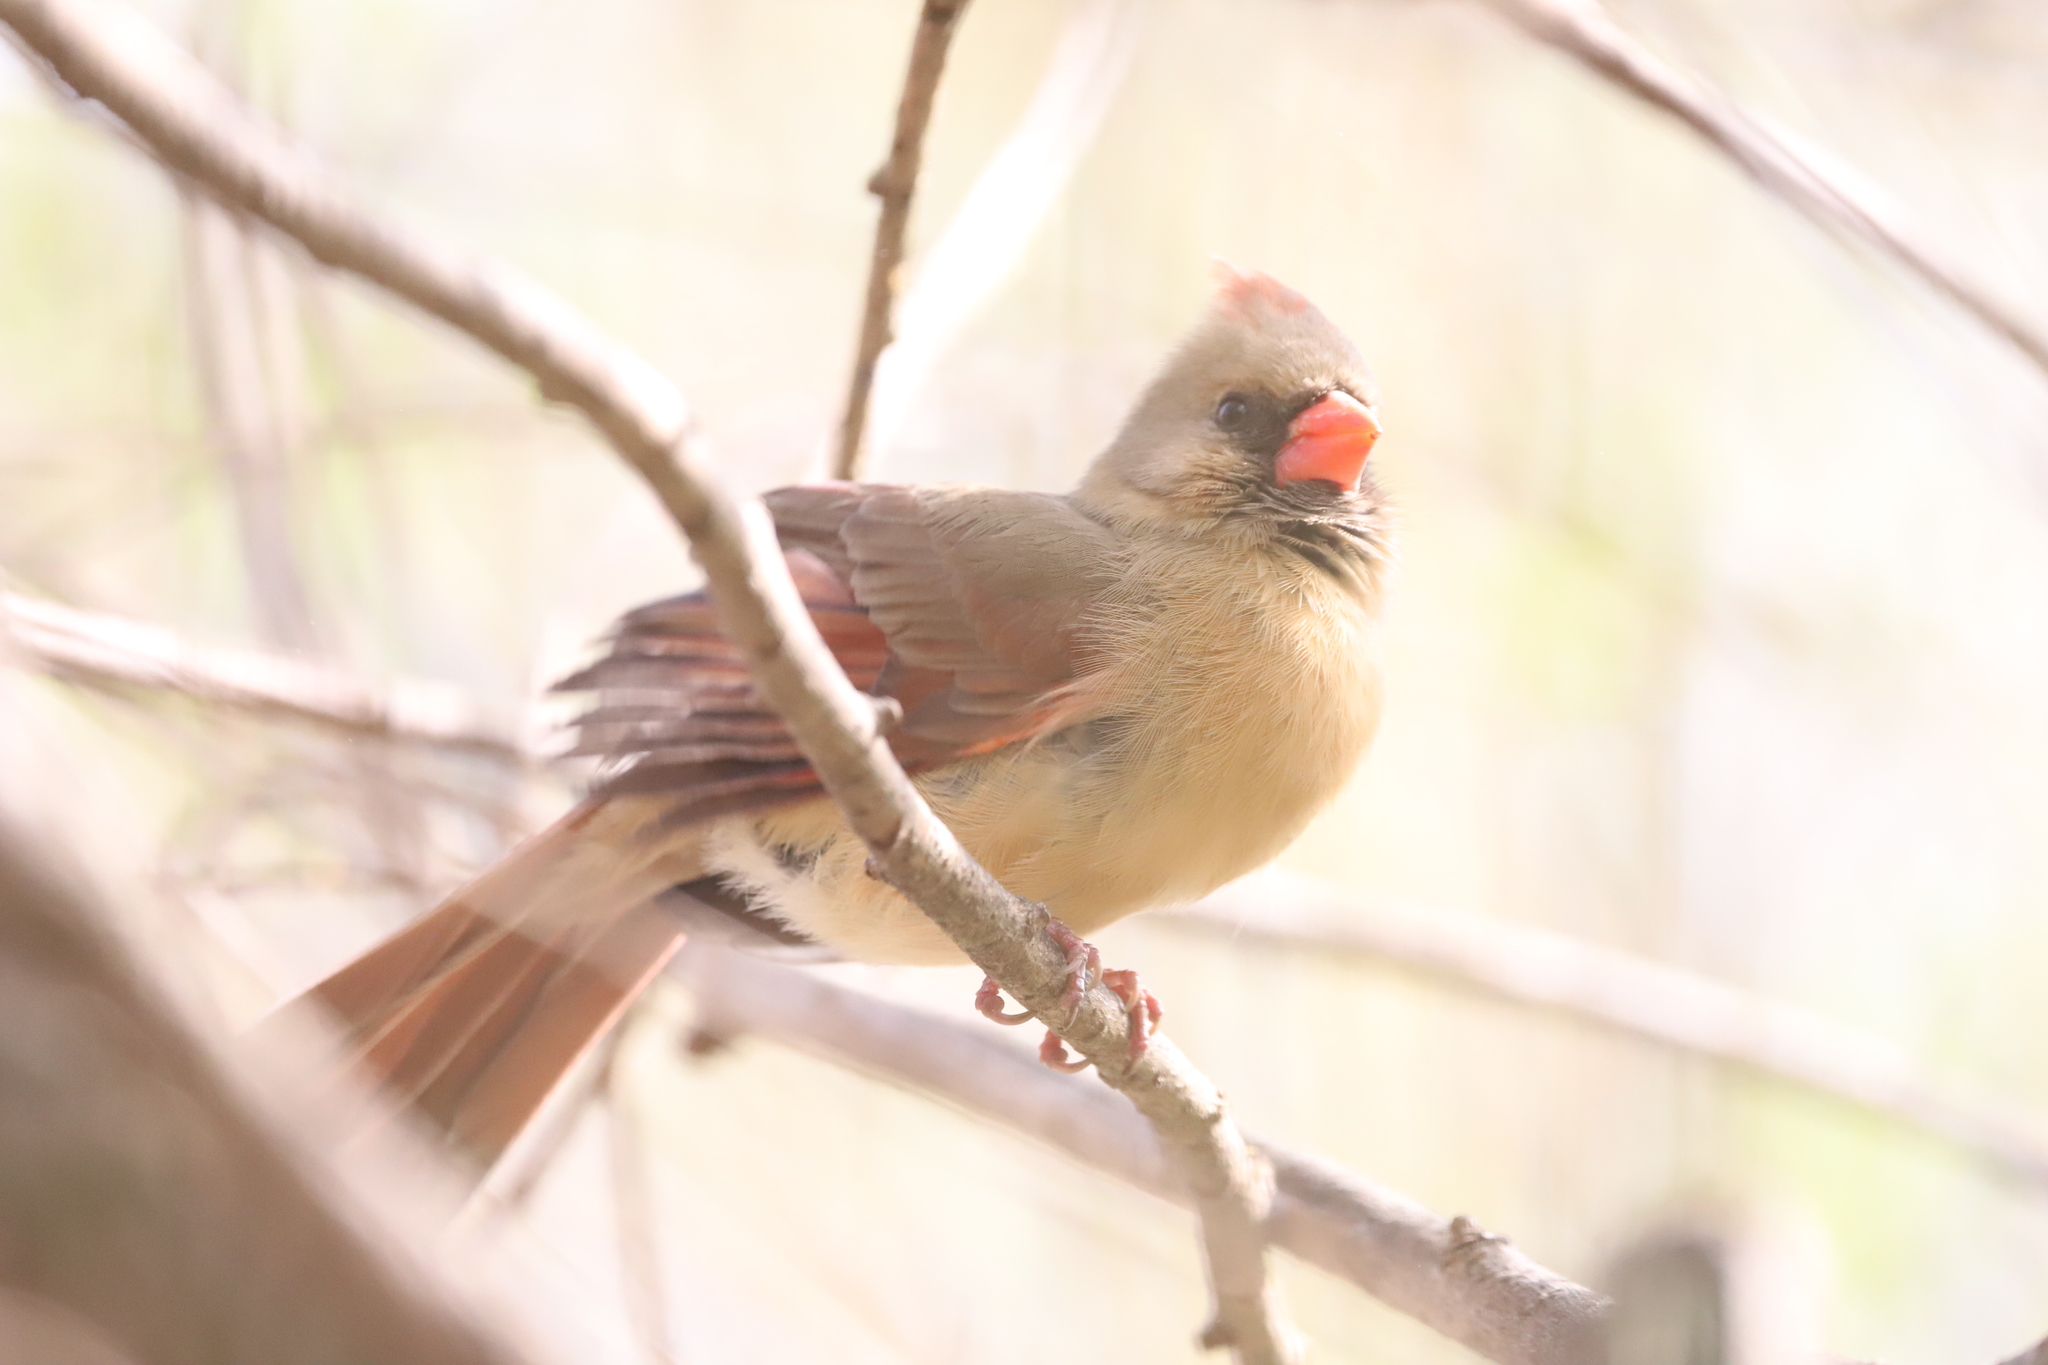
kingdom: Animalia
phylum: Chordata
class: Aves
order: Passeriformes
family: Cardinalidae
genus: Cardinalis
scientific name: Cardinalis cardinalis
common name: Northern cardinal
